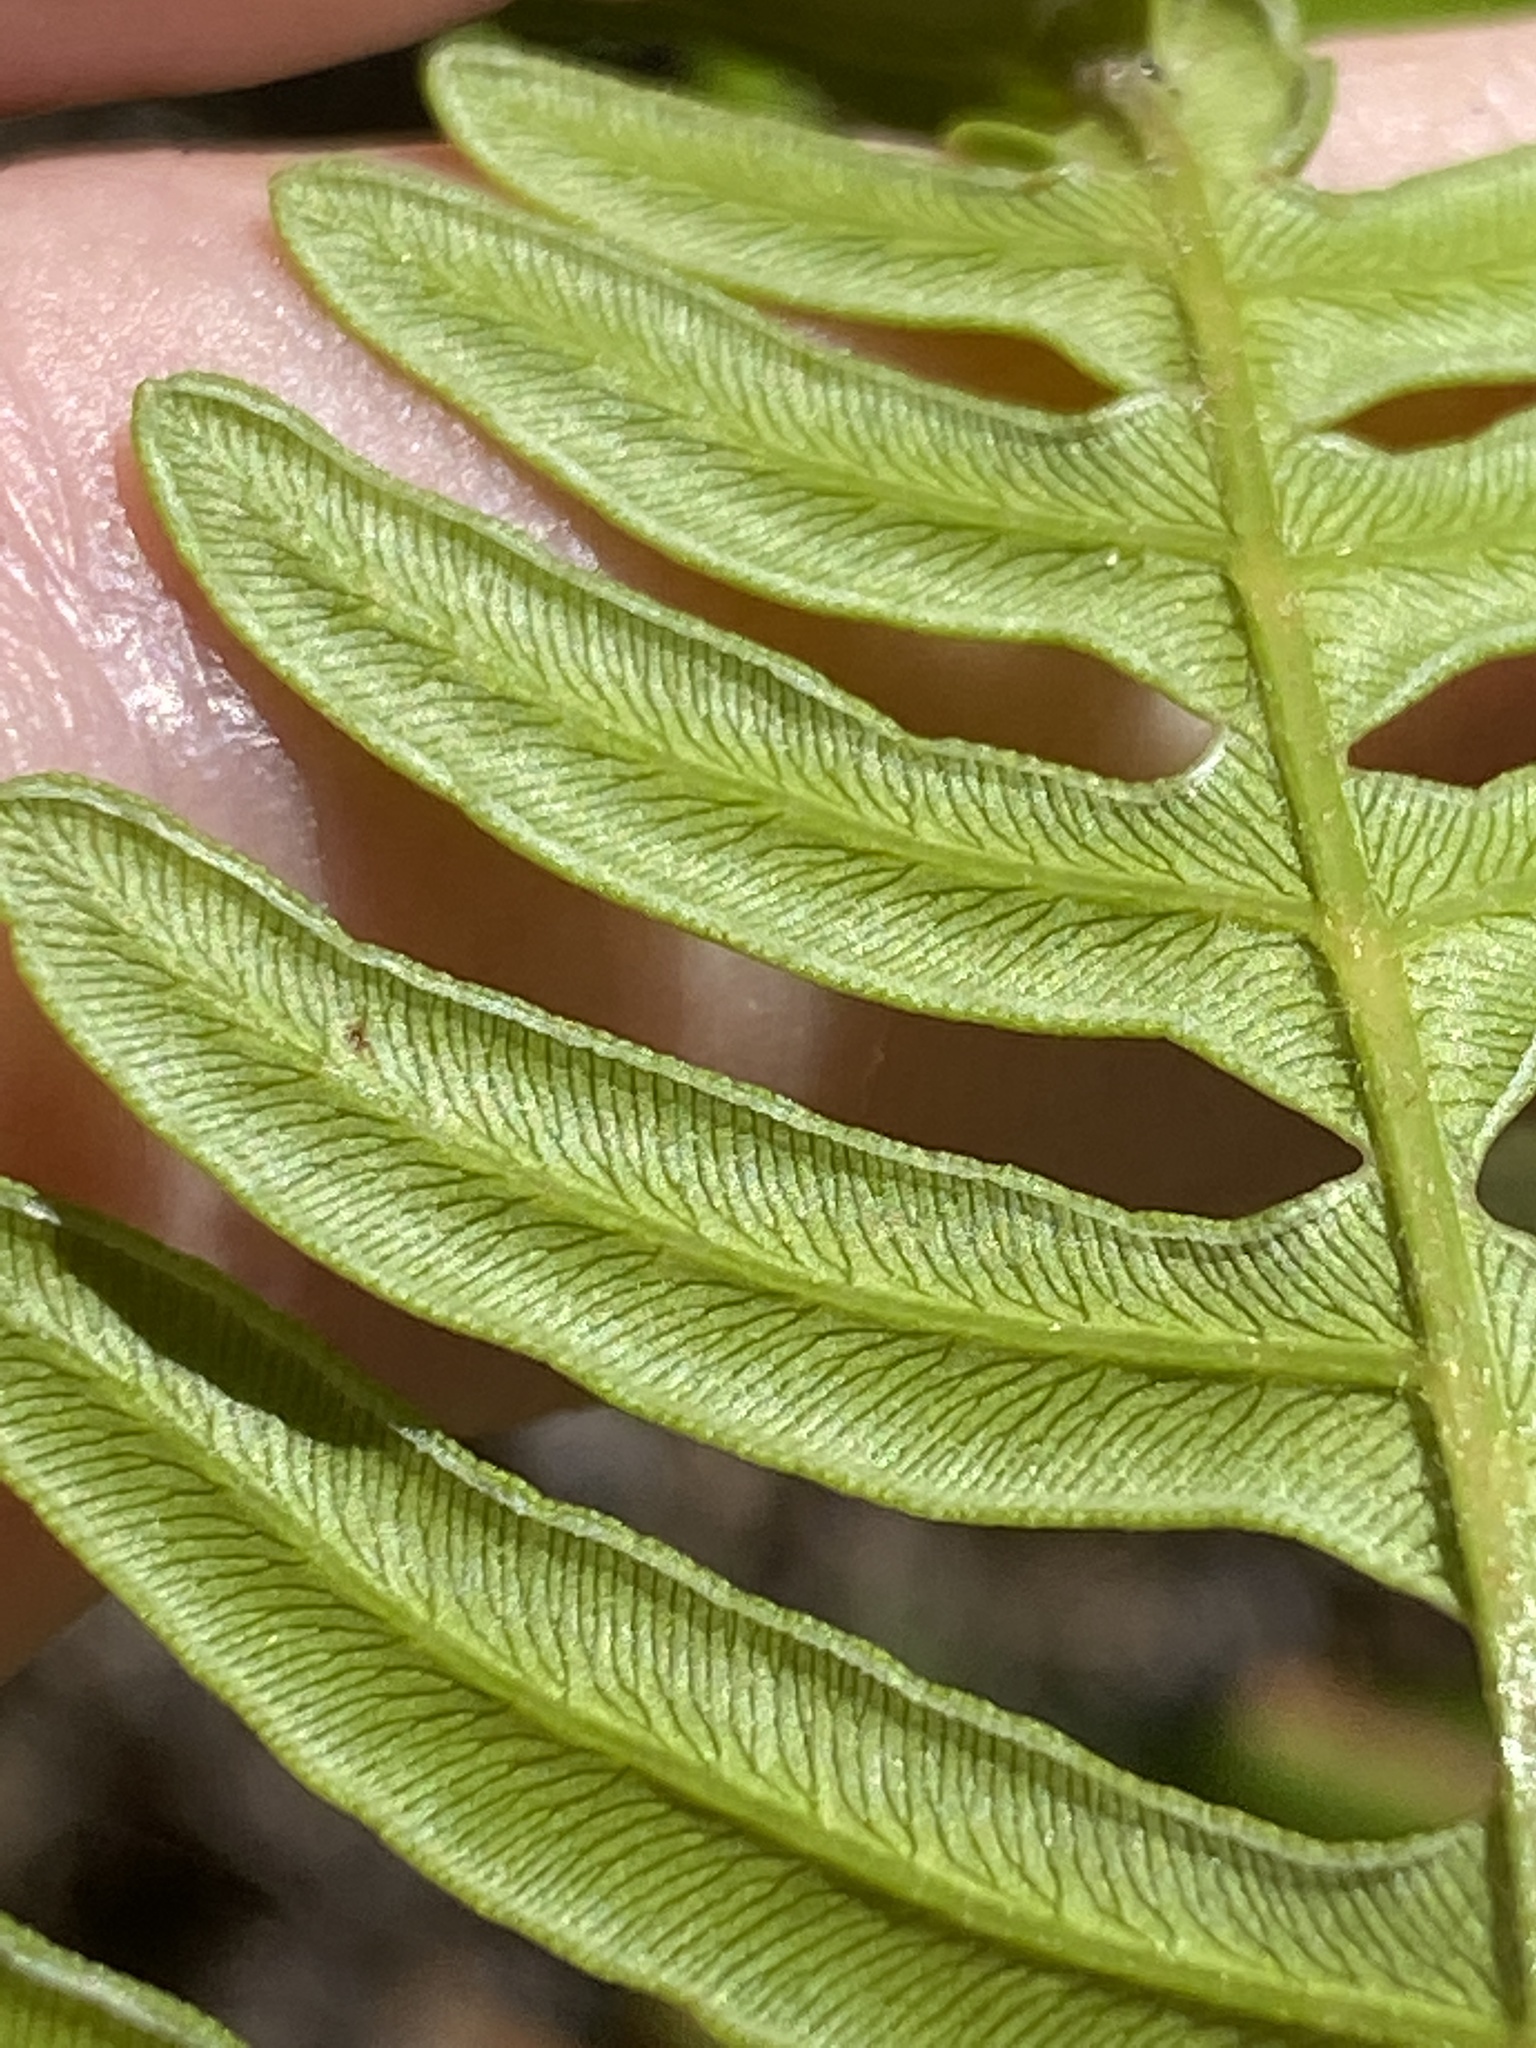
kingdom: Plantae
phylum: Tracheophyta
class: Polypodiopsida
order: Polypodiales
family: Dennstaedtiaceae
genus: Pteridium
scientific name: Pteridium
